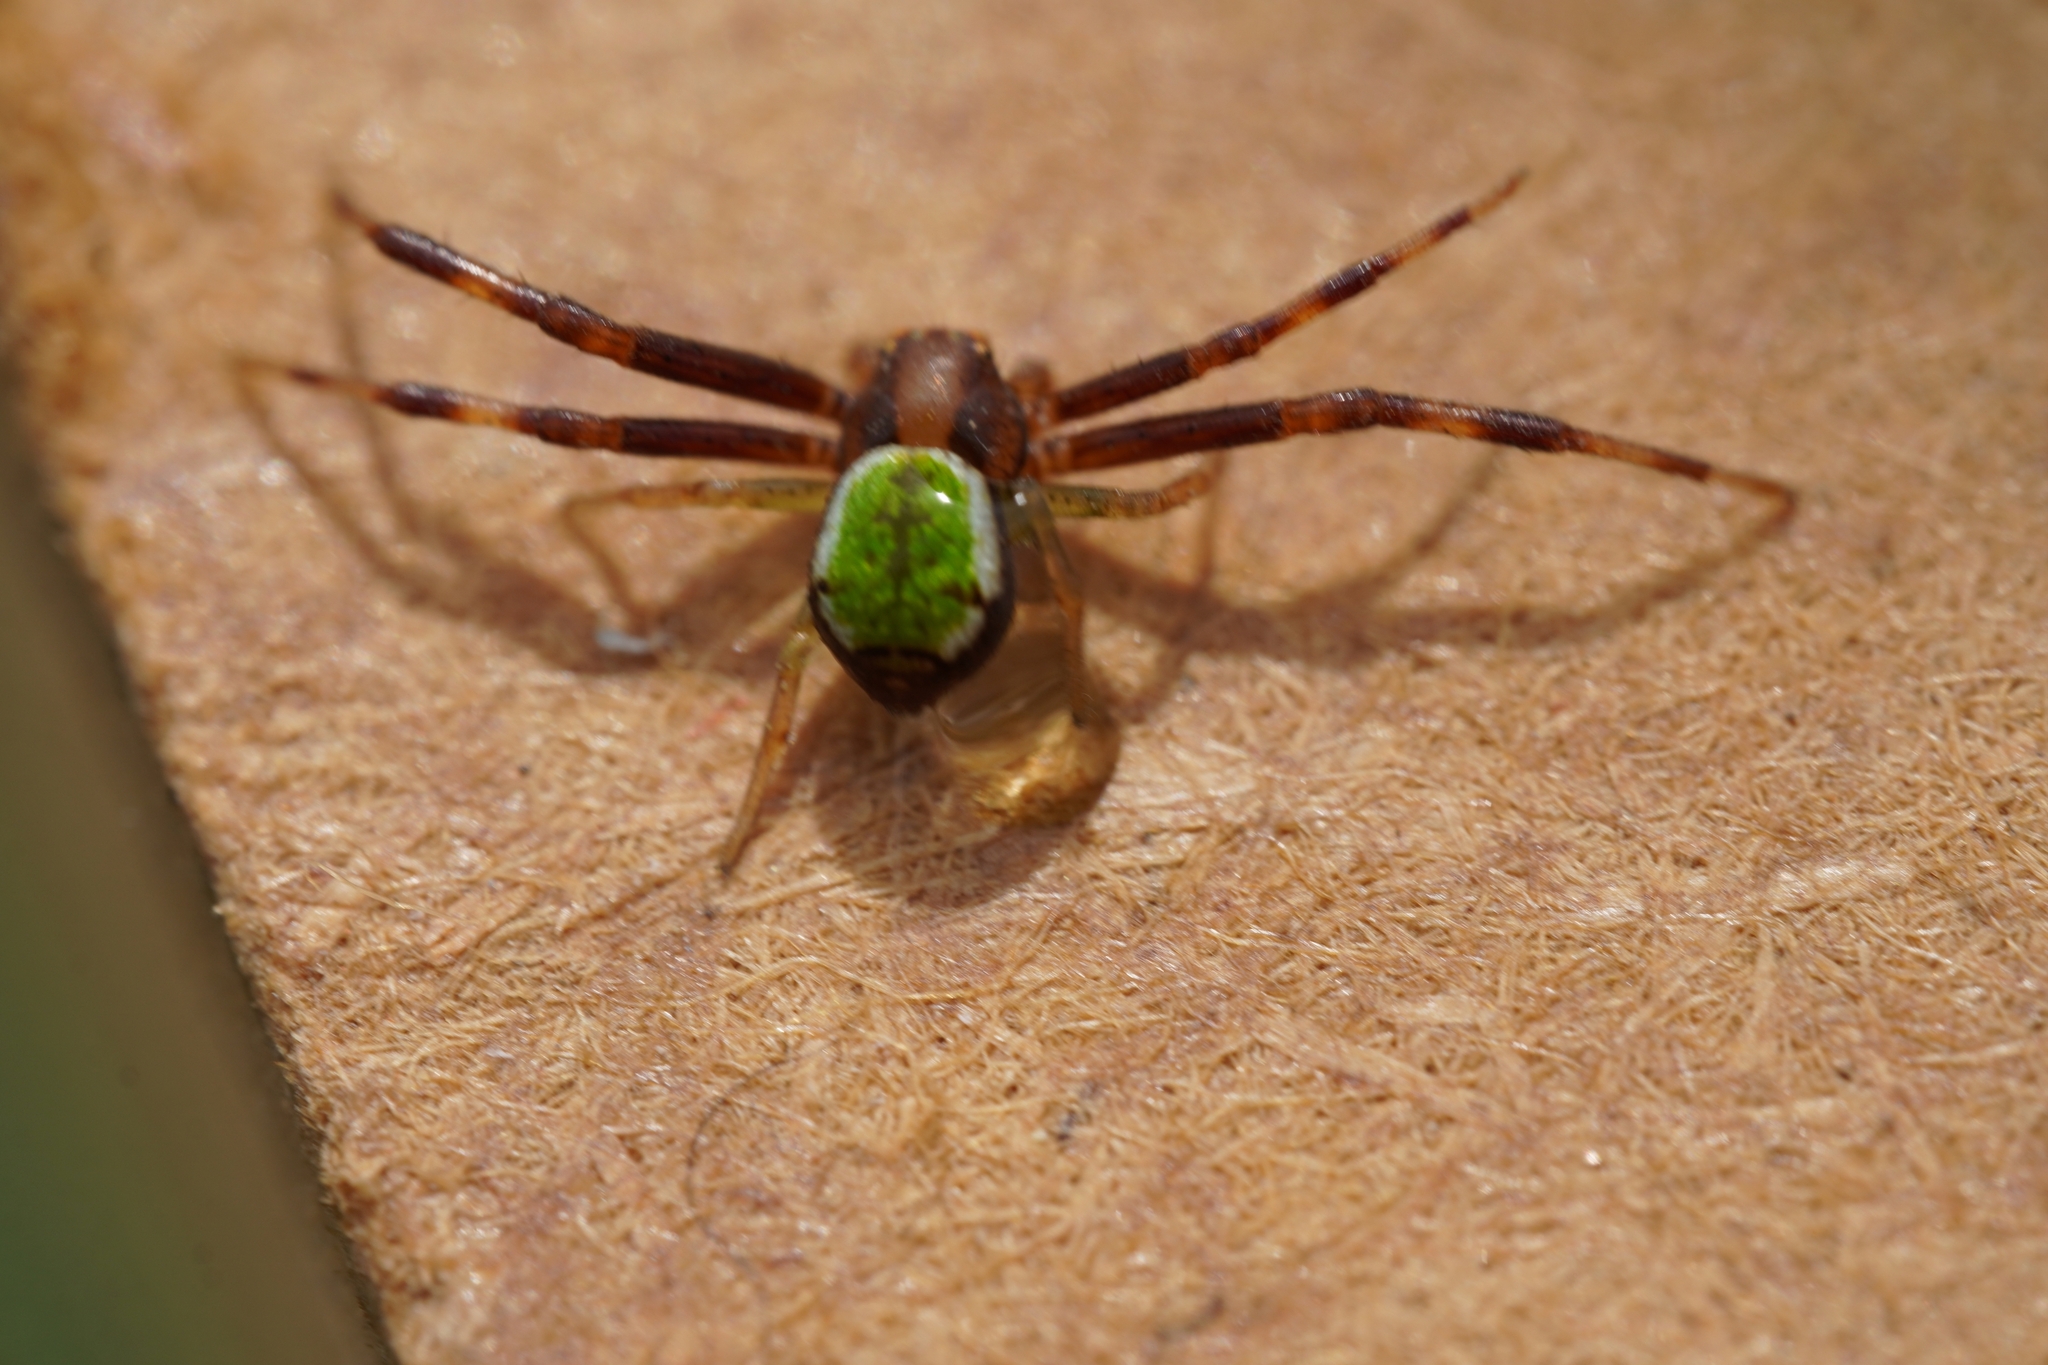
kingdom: Animalia
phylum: Arthropoda
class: Arachnida
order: Araneae
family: Thomisidae
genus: Ebrechtella
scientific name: Ebrechtella tricuspidata
